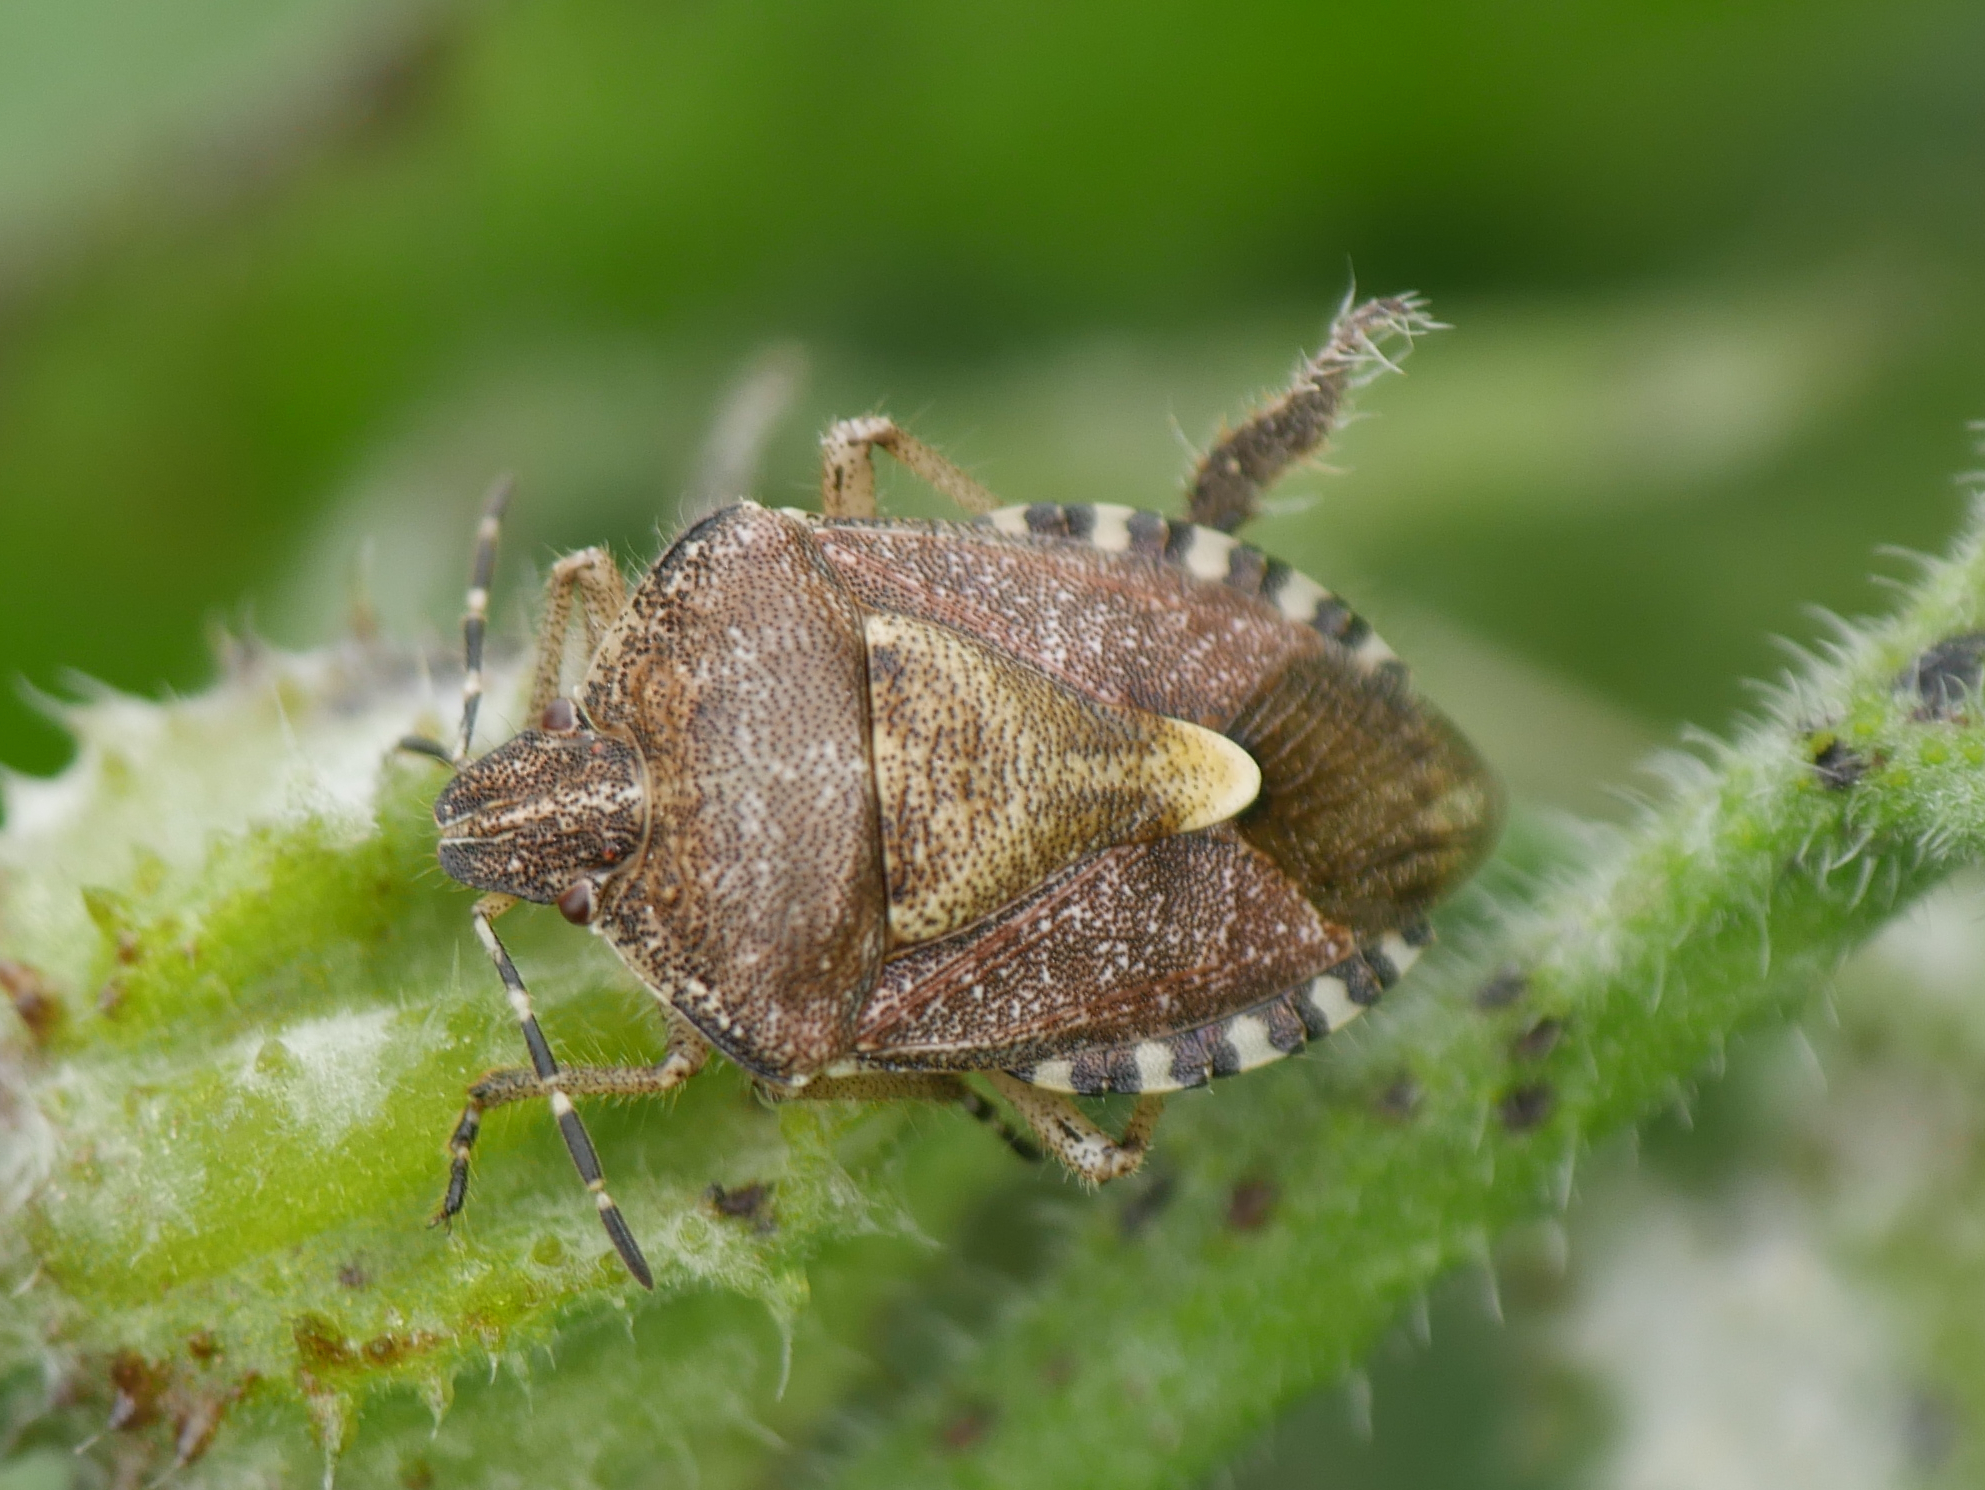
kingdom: Animalia
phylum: Arthropoda
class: Insecta
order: Hemiptera
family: Pentatomidae
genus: Dolycoris
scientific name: Dolycoris baccarum
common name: Sloe bug
